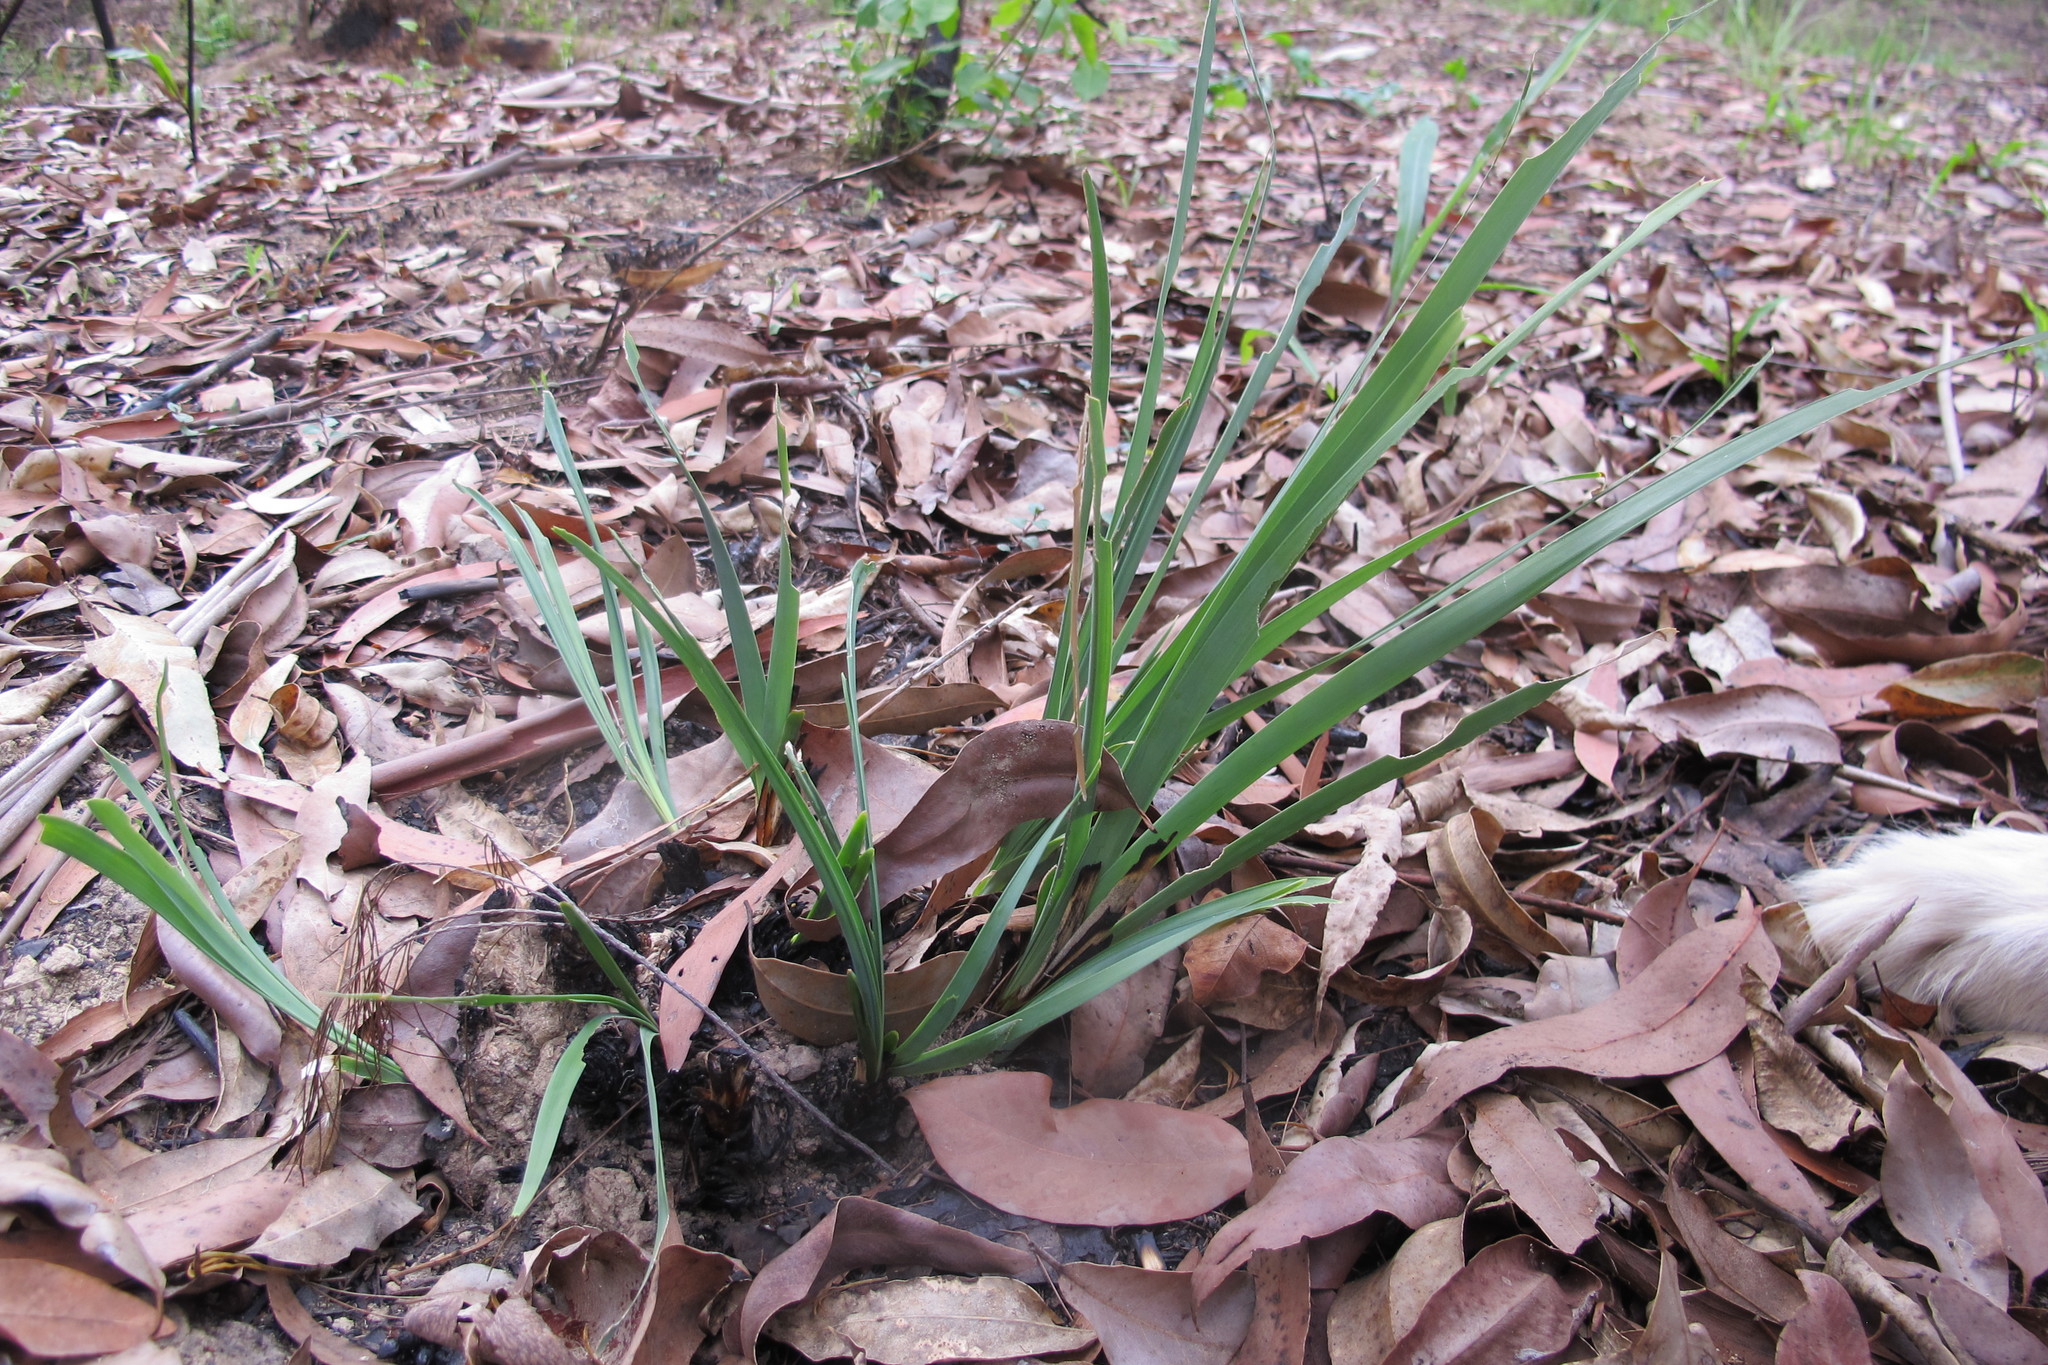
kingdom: Plantae
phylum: Tracheophyta
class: Liliopsida
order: Asparagales
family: Asparagaceae
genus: Lomandra
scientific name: Lomandra longifolia
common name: Longleaf mat-rush
